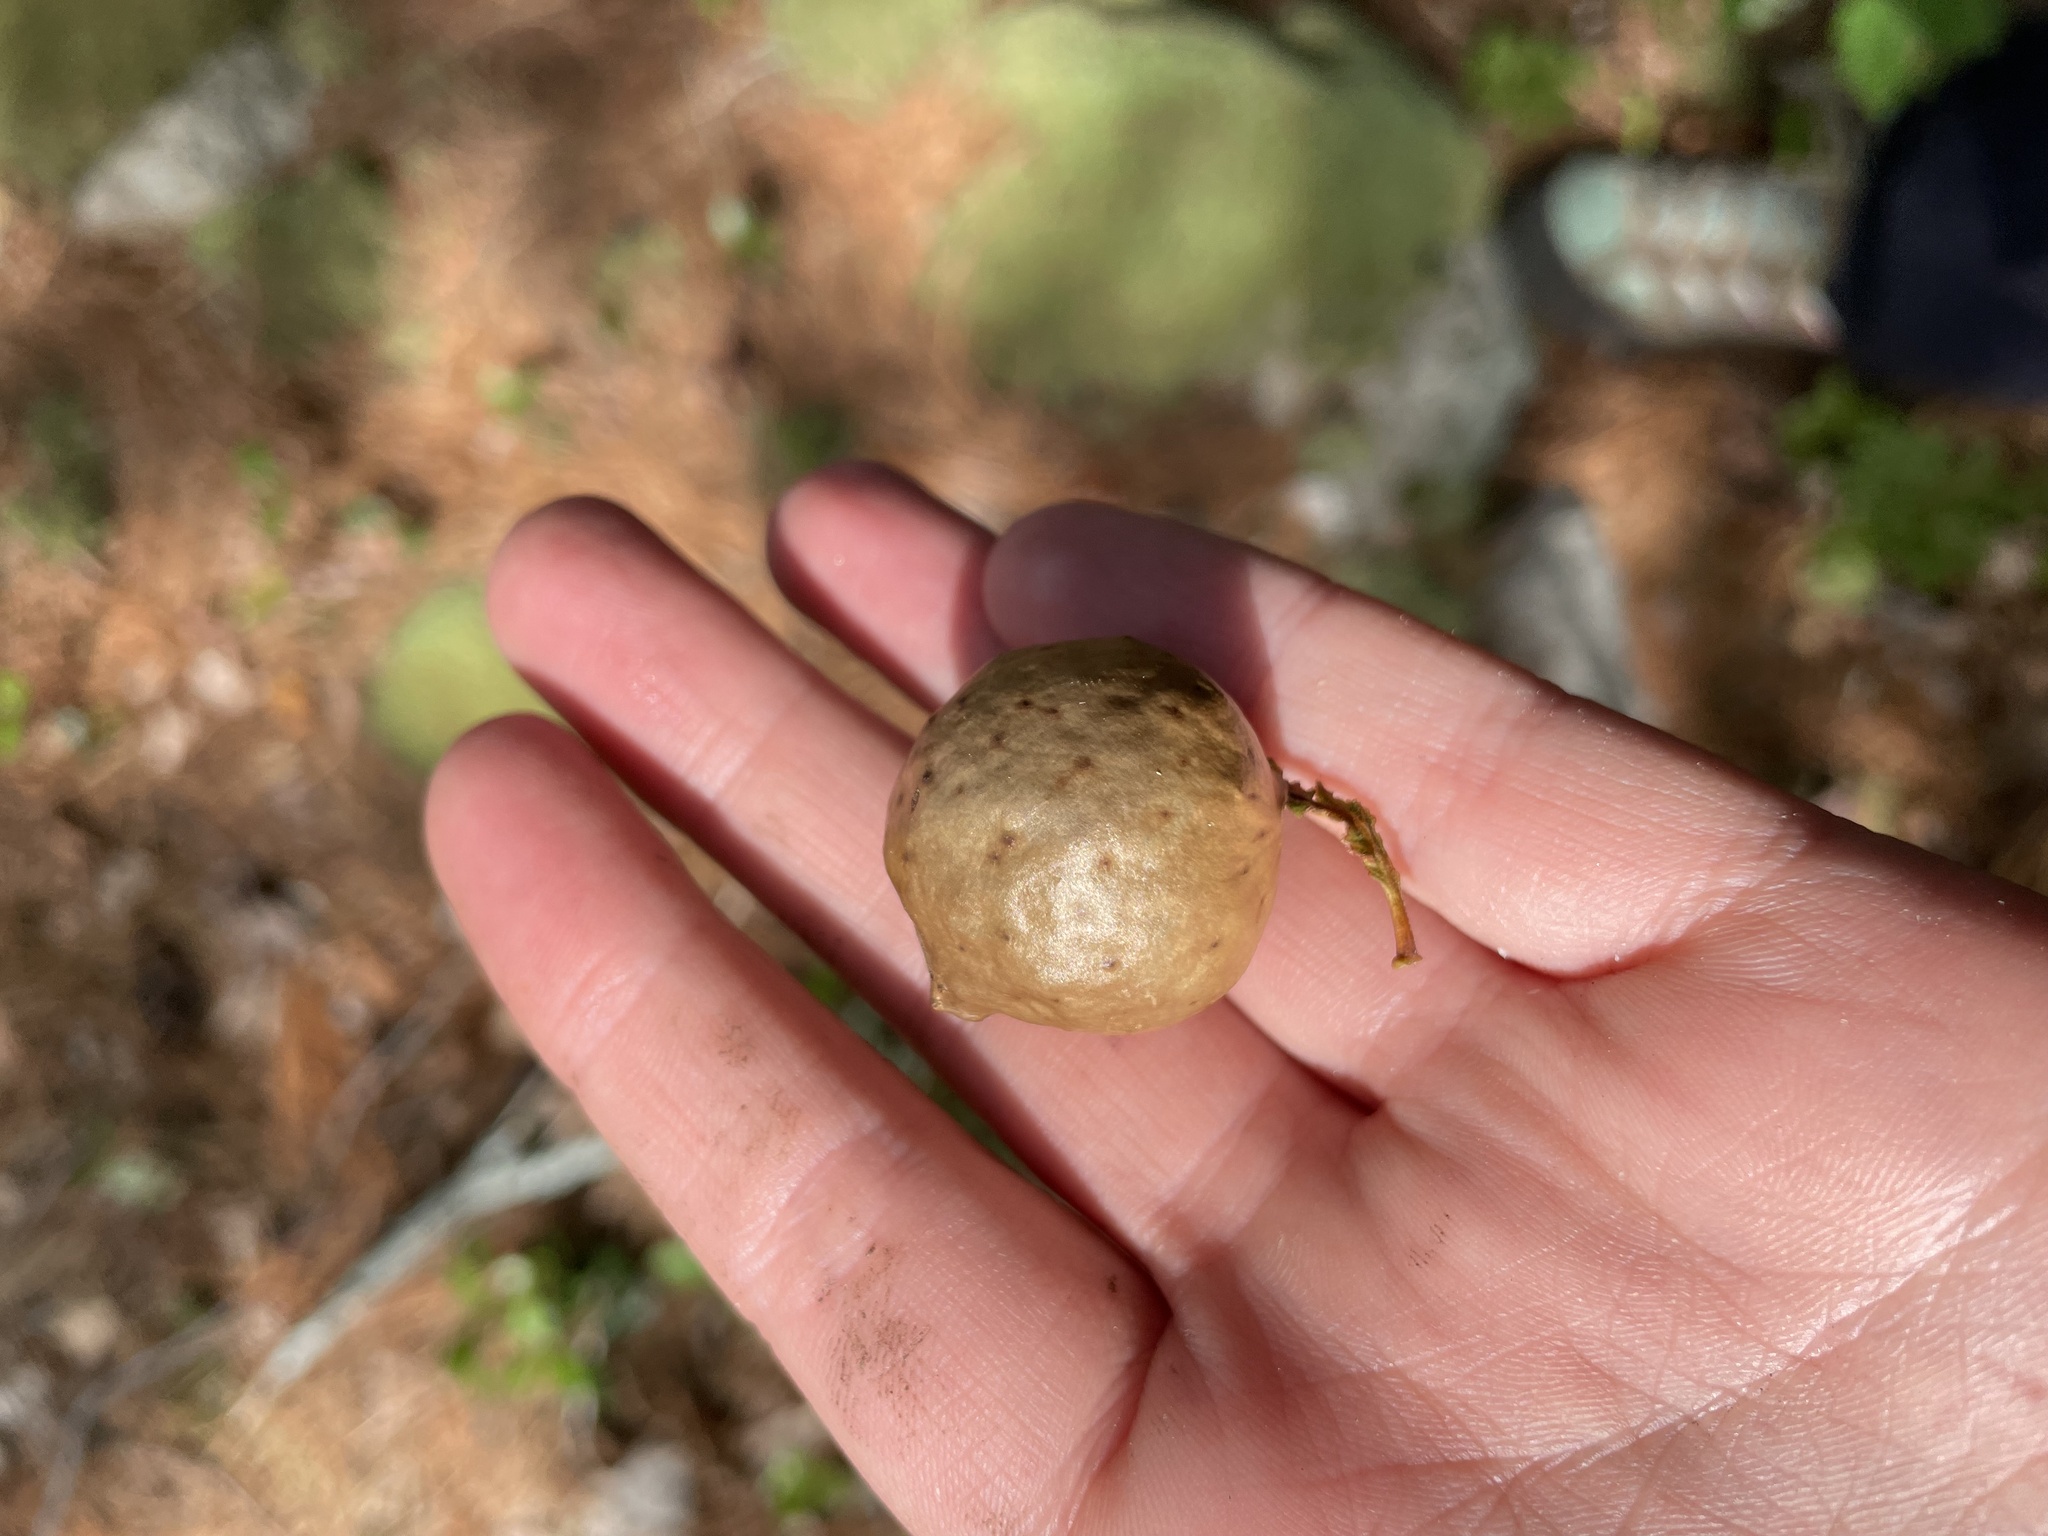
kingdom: Animalia
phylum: Arthropoda
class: Insecta
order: Hymenoptera
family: Cynipidae
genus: Amphibolips
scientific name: Amphibolips
